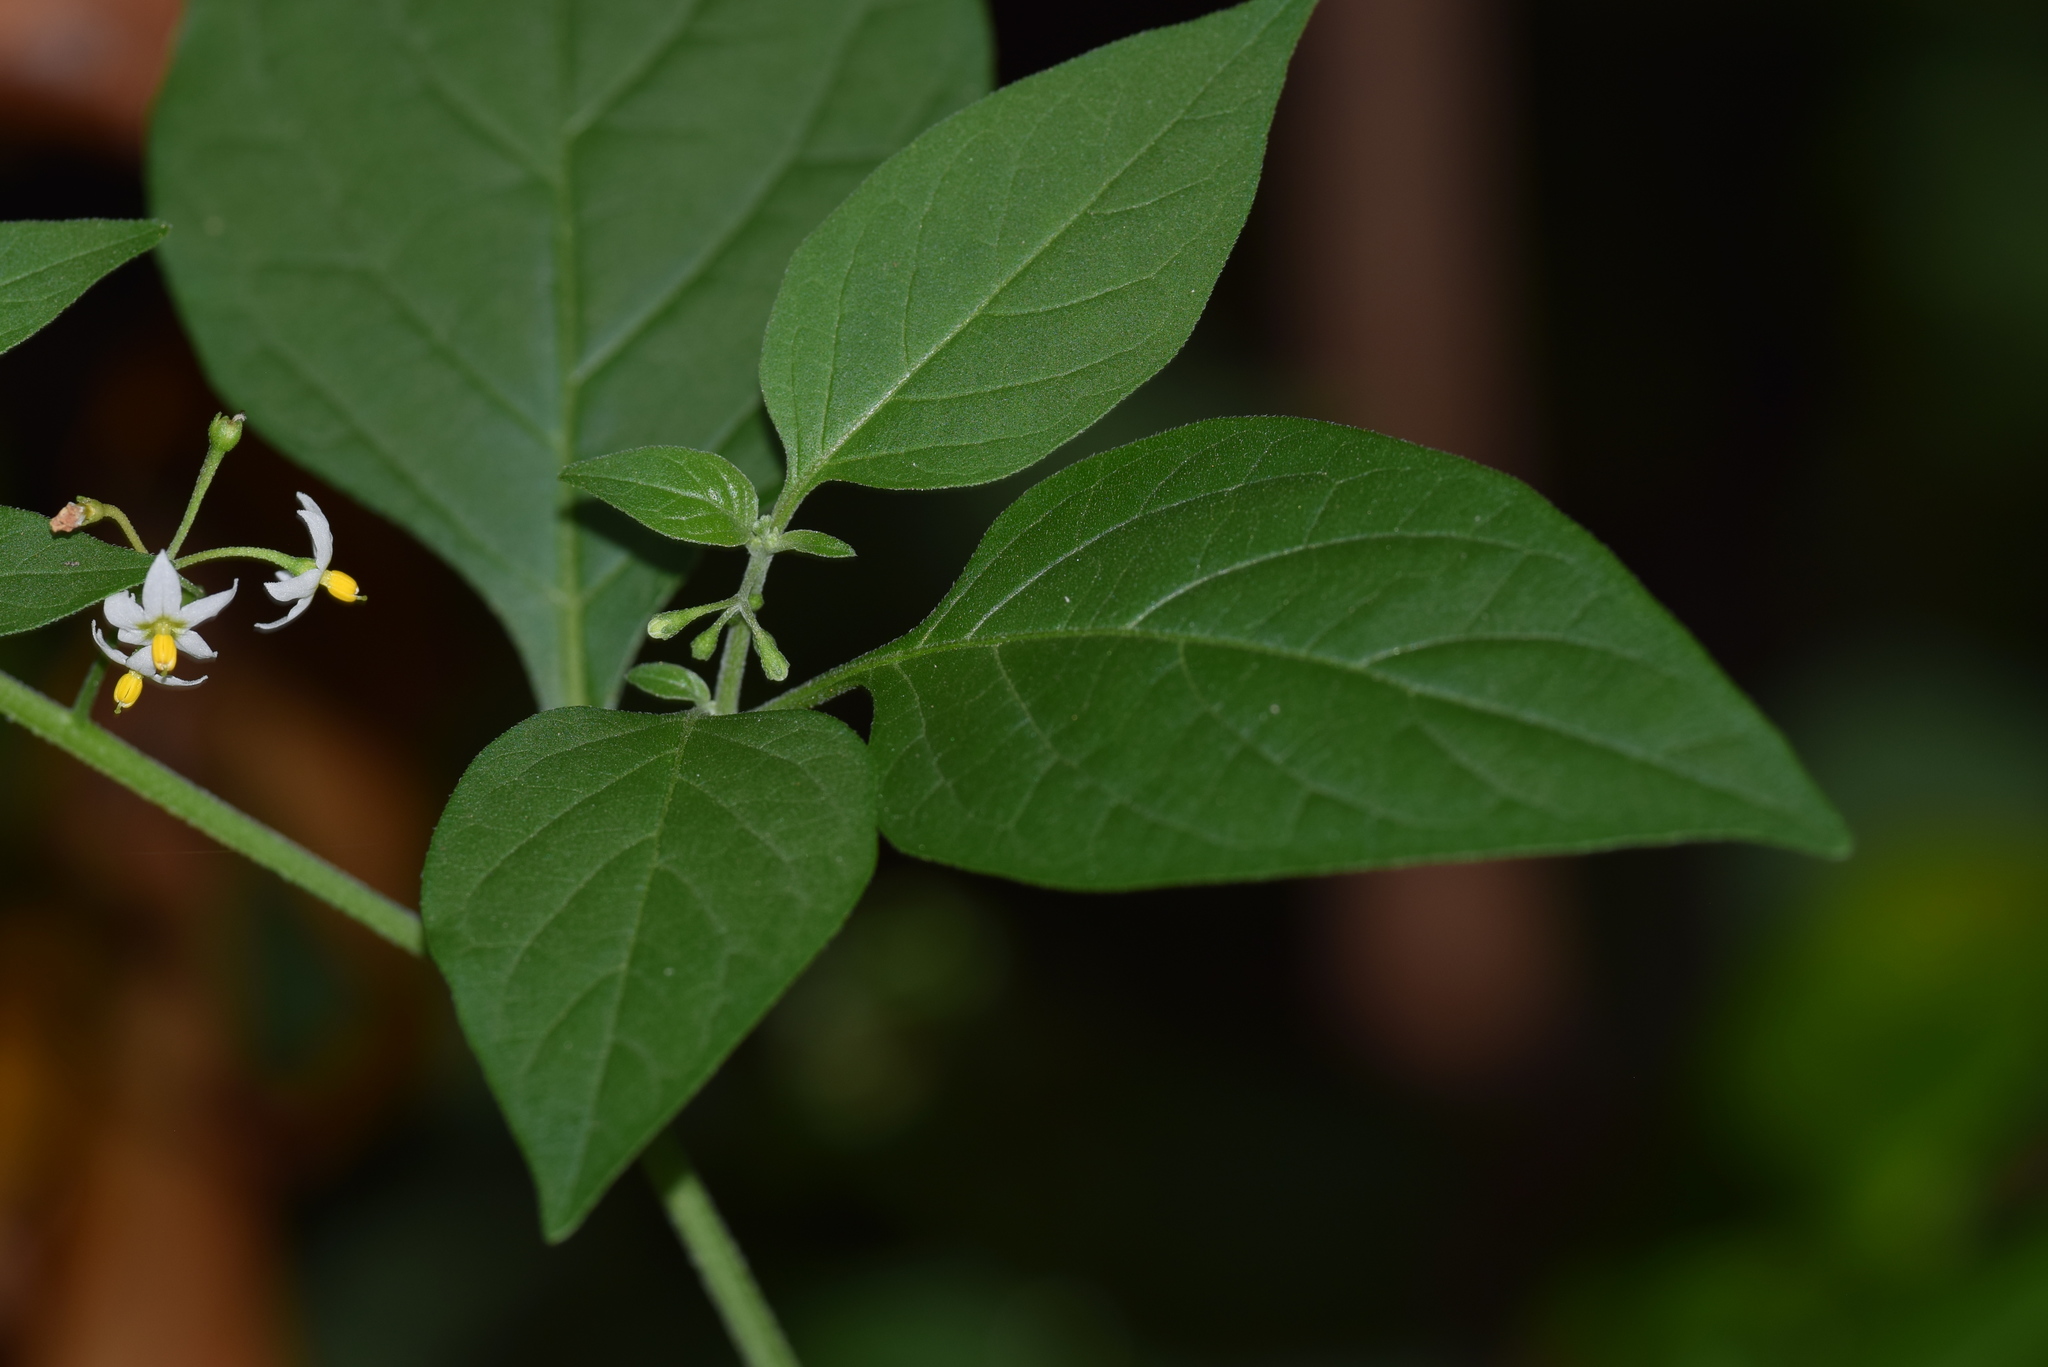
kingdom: Plantae
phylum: Tracheophyta
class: Magnoliopsida
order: Solanales
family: Solanaceae
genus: Solanum
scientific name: Solanum americanum
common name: American black nightshade
